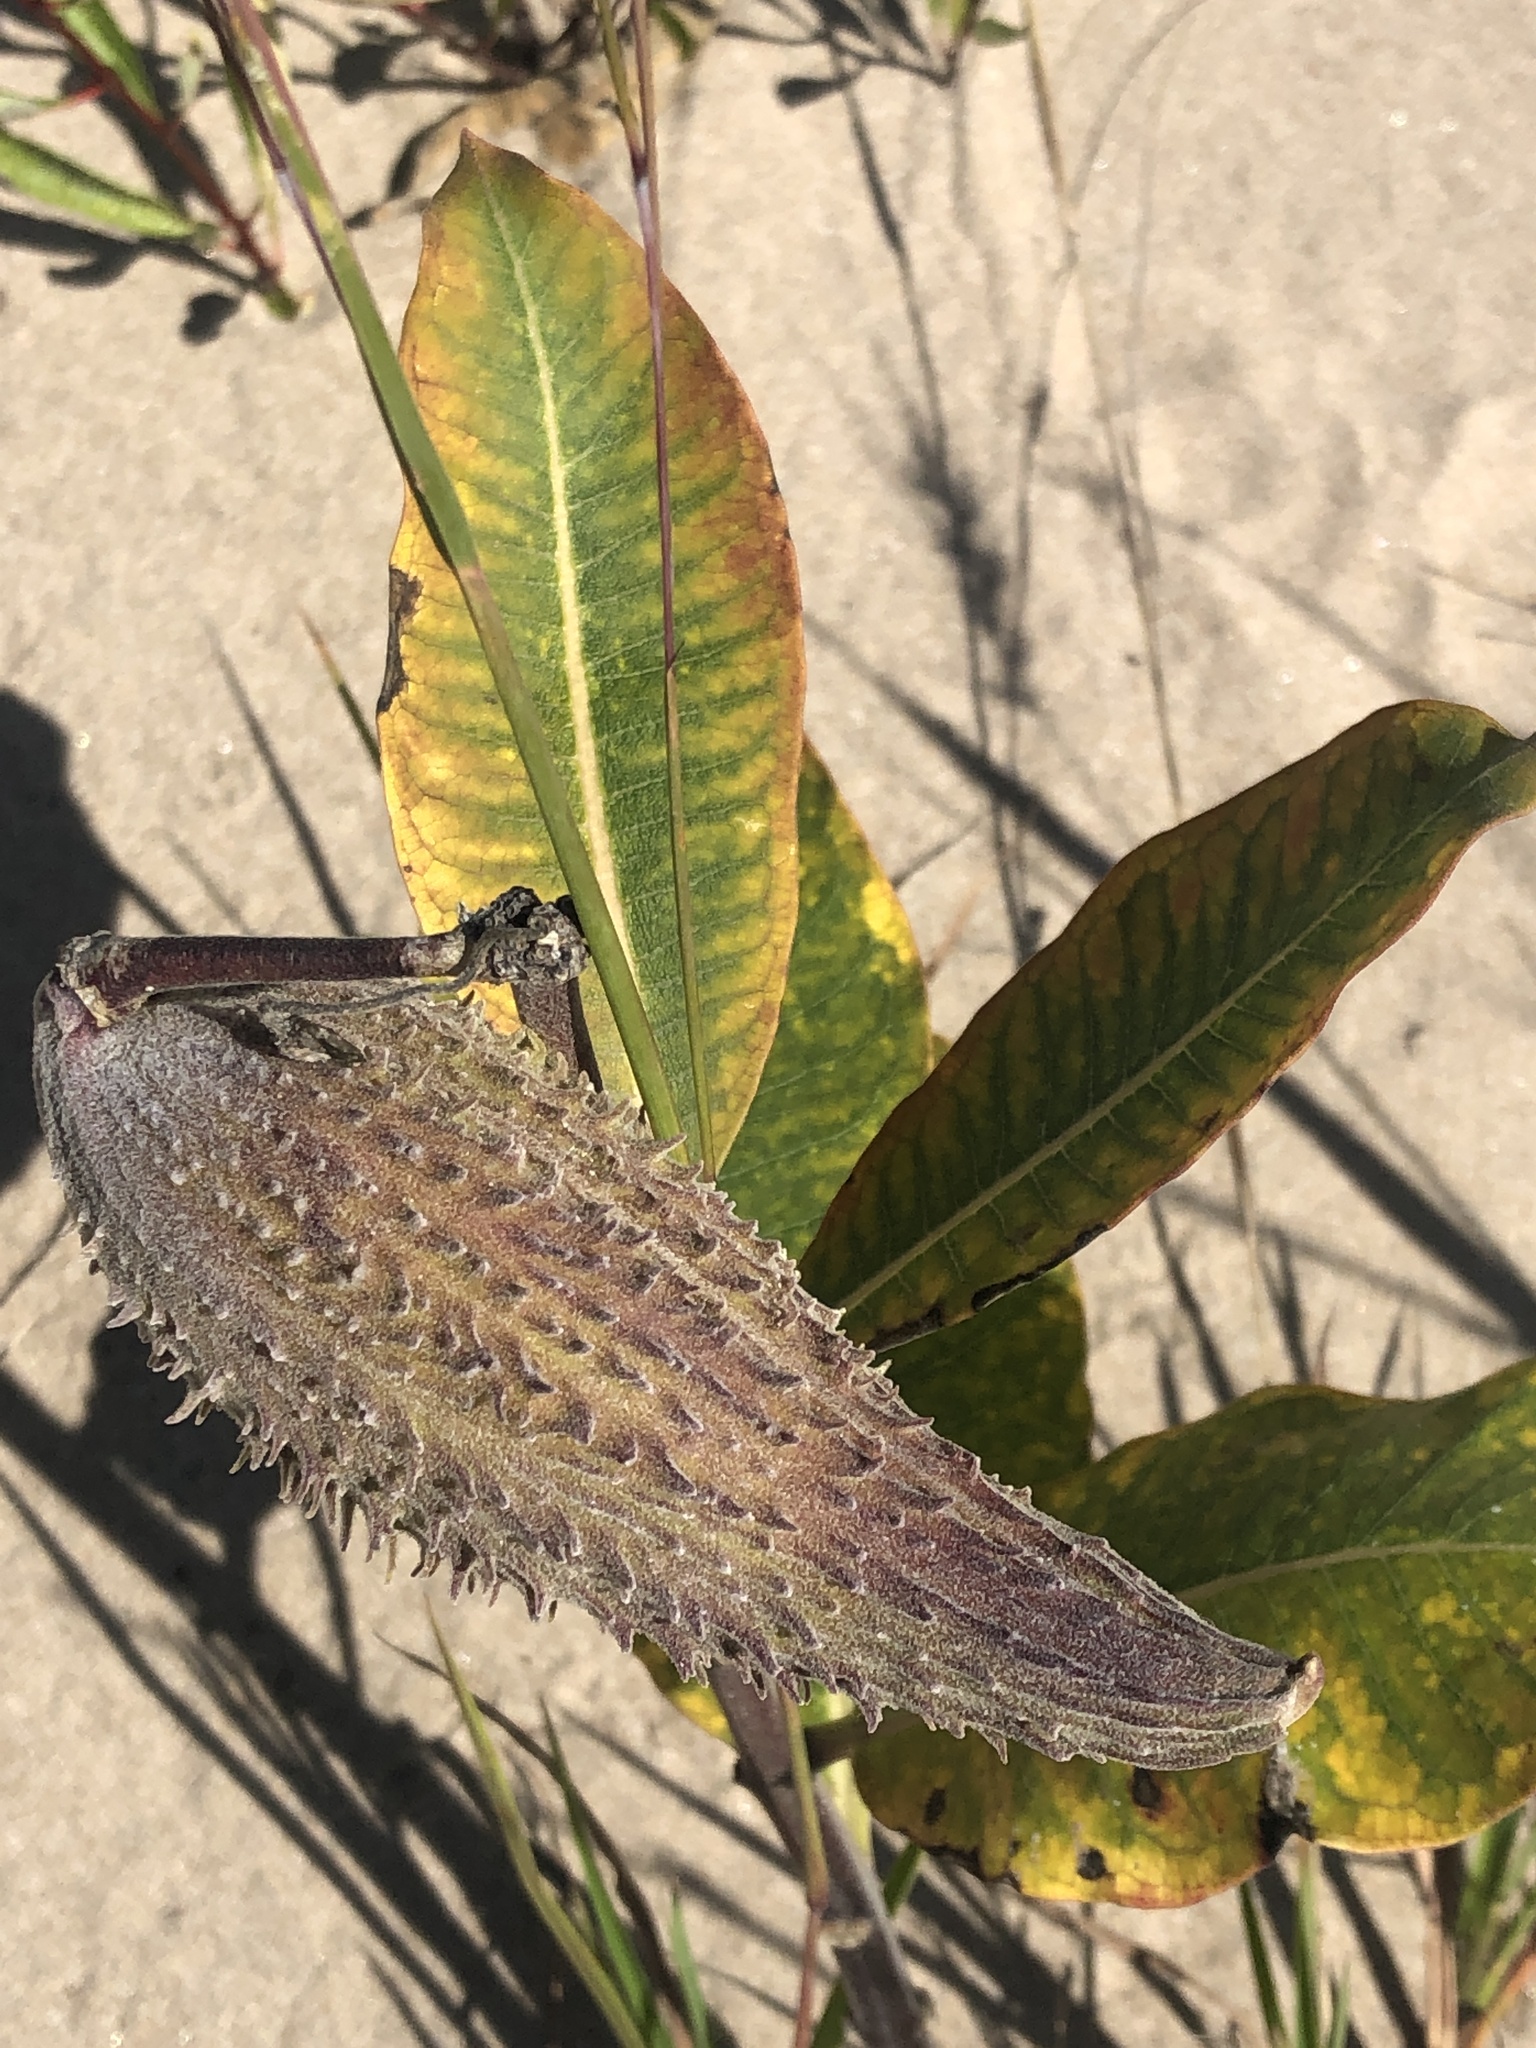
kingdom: Plantae
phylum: Tracheophyta
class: Magnoliopsida
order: Gentianales
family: Apocynaceae
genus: Asclepias
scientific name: Asclepias syriaca
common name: Common milkweed
